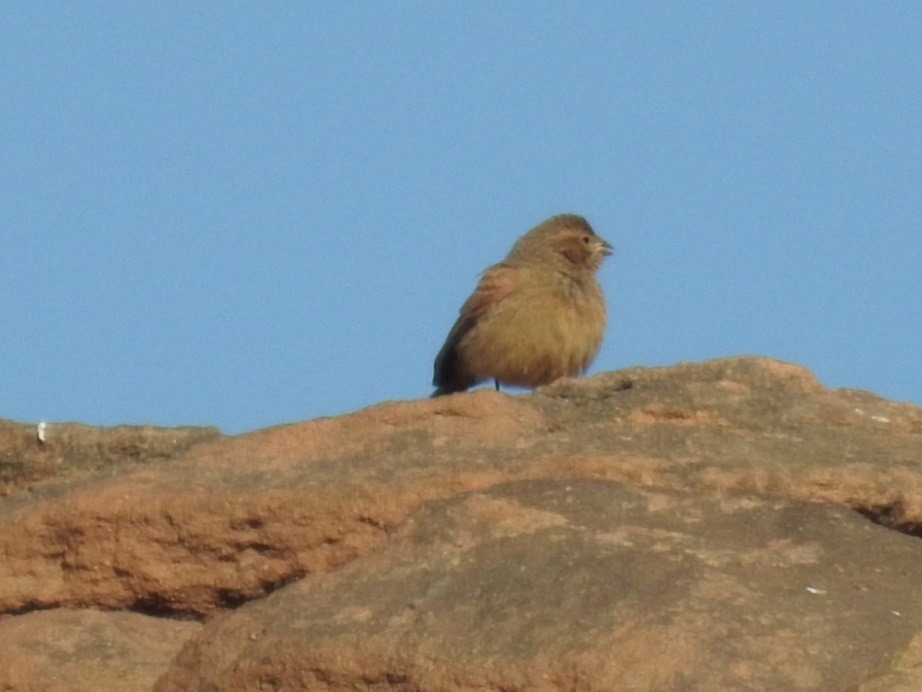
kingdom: Animalia
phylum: Chordata
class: Aves
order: Passeriformes
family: Emberizidae
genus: Emberiza
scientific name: Emberiza sahari
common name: House bunting
